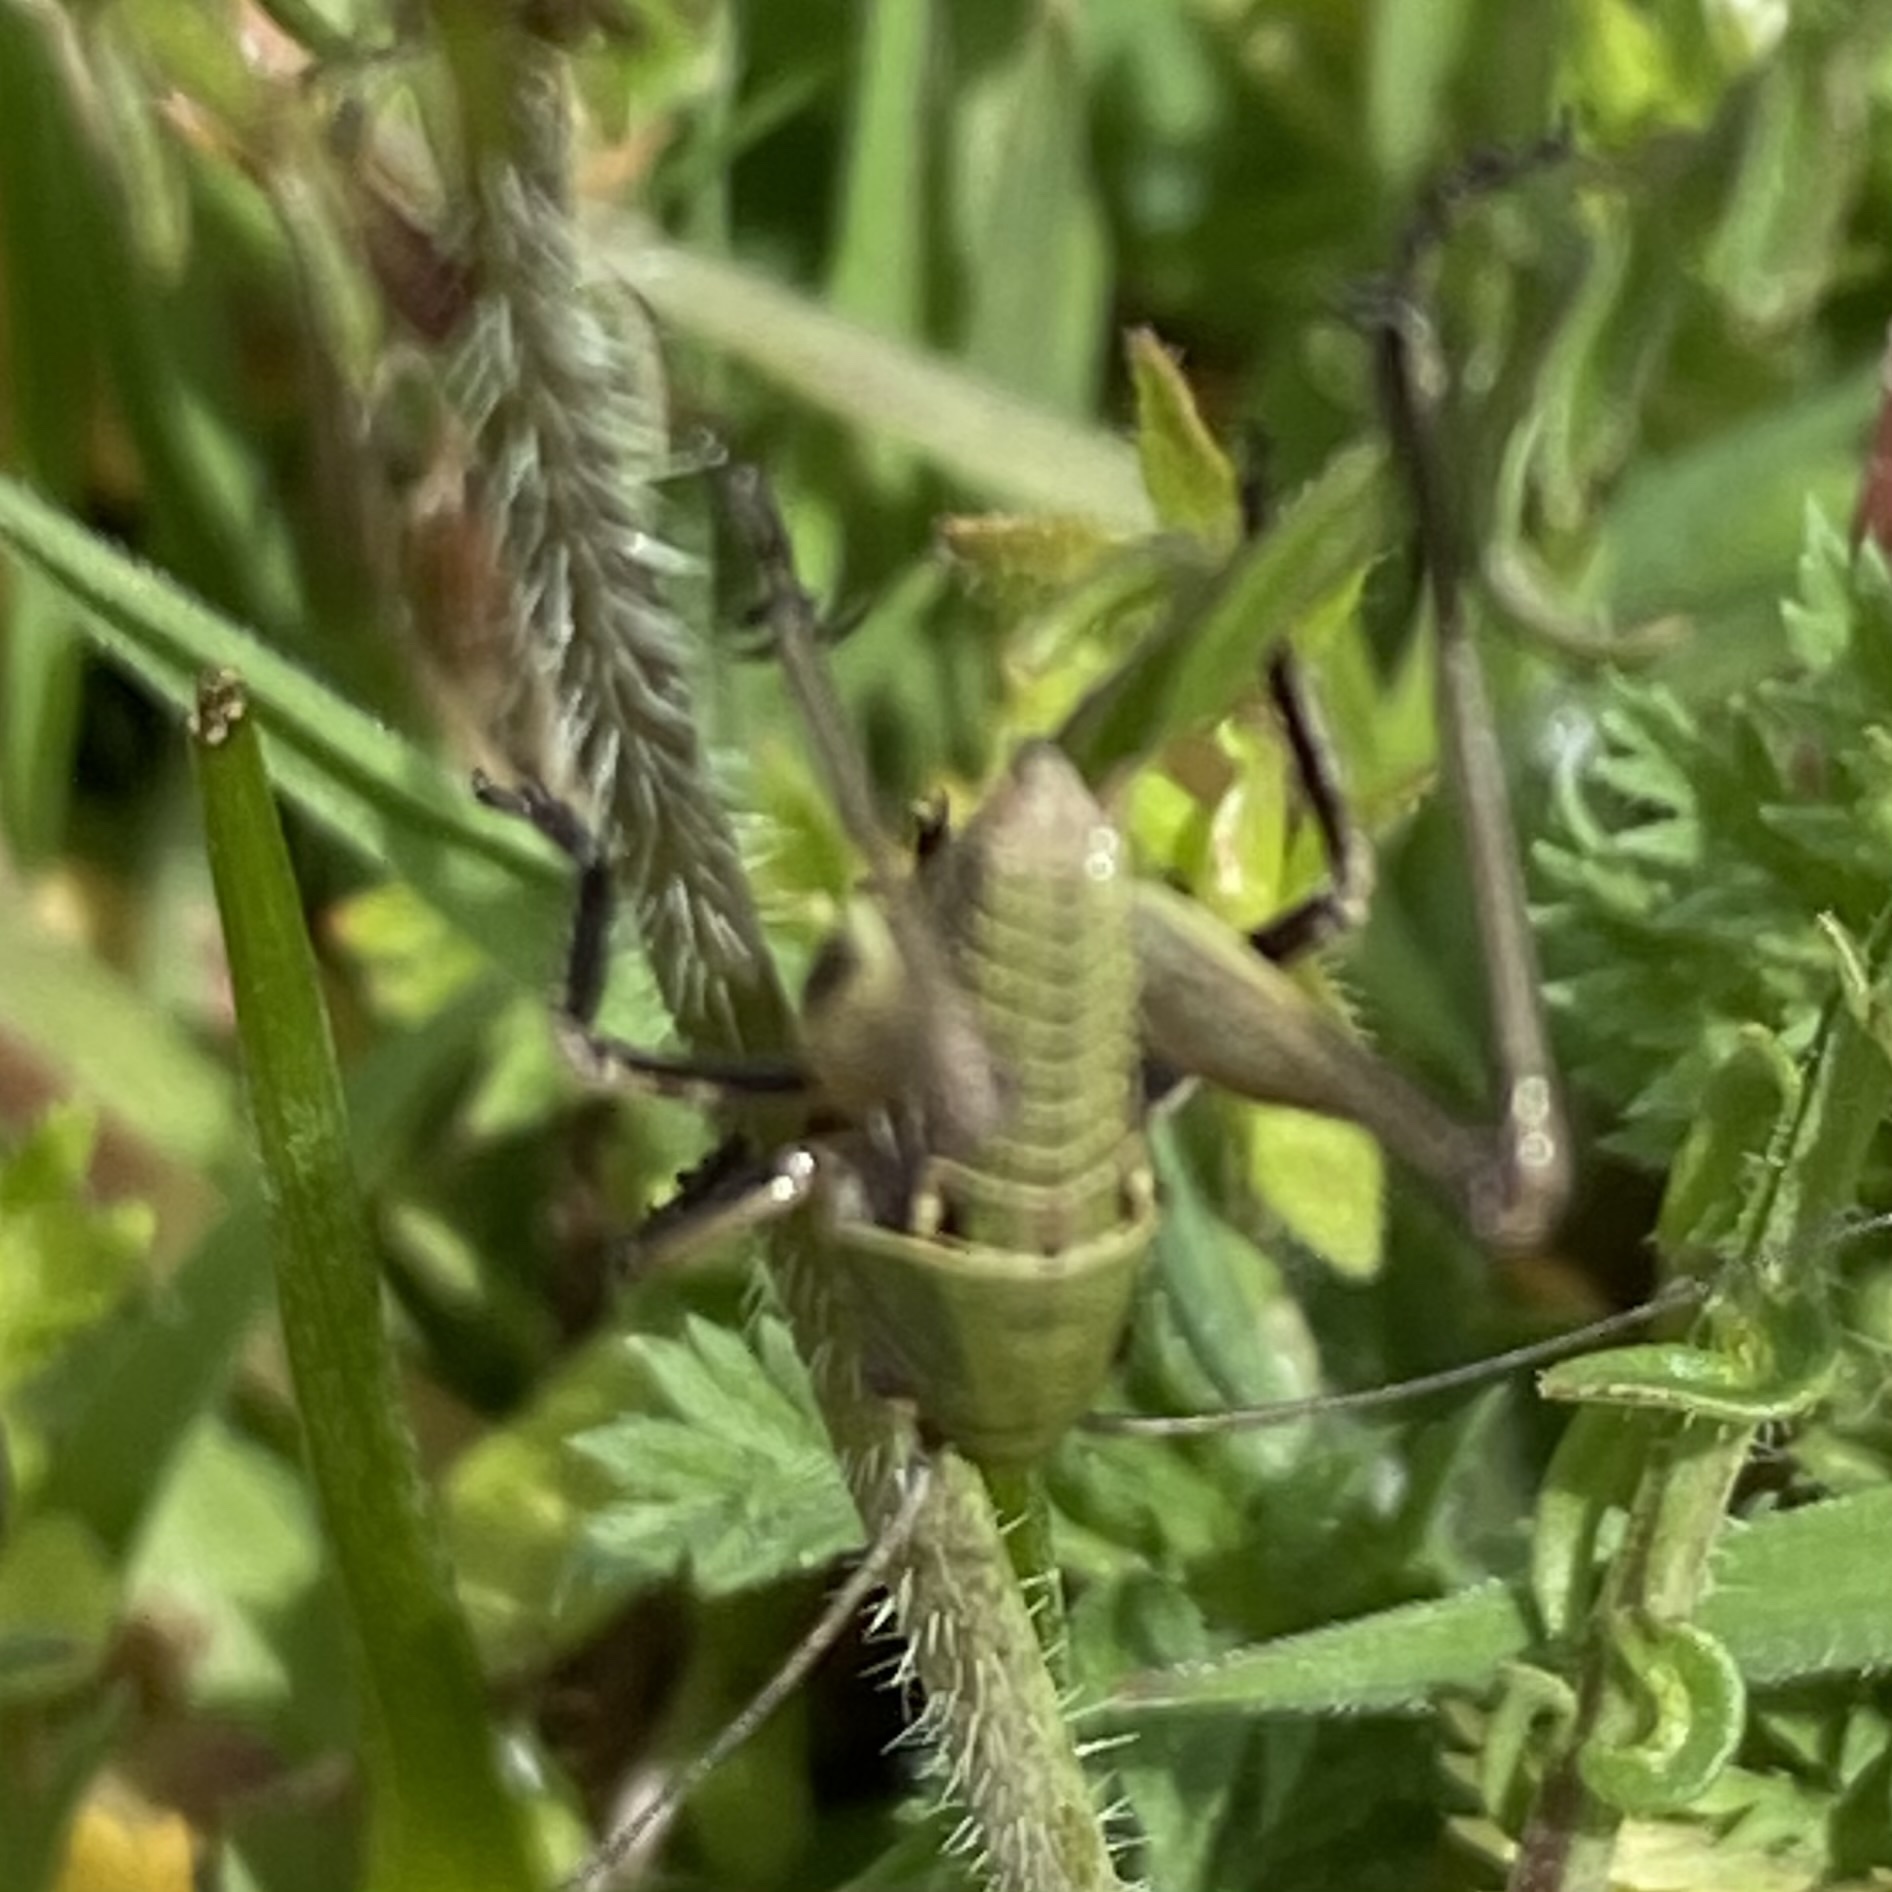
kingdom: Animalia
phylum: Arthropoda
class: Insecta
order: Orthoptera
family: Tettigoniidae
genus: Decticus
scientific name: Decticus verrucivorus
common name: Wart-biter
